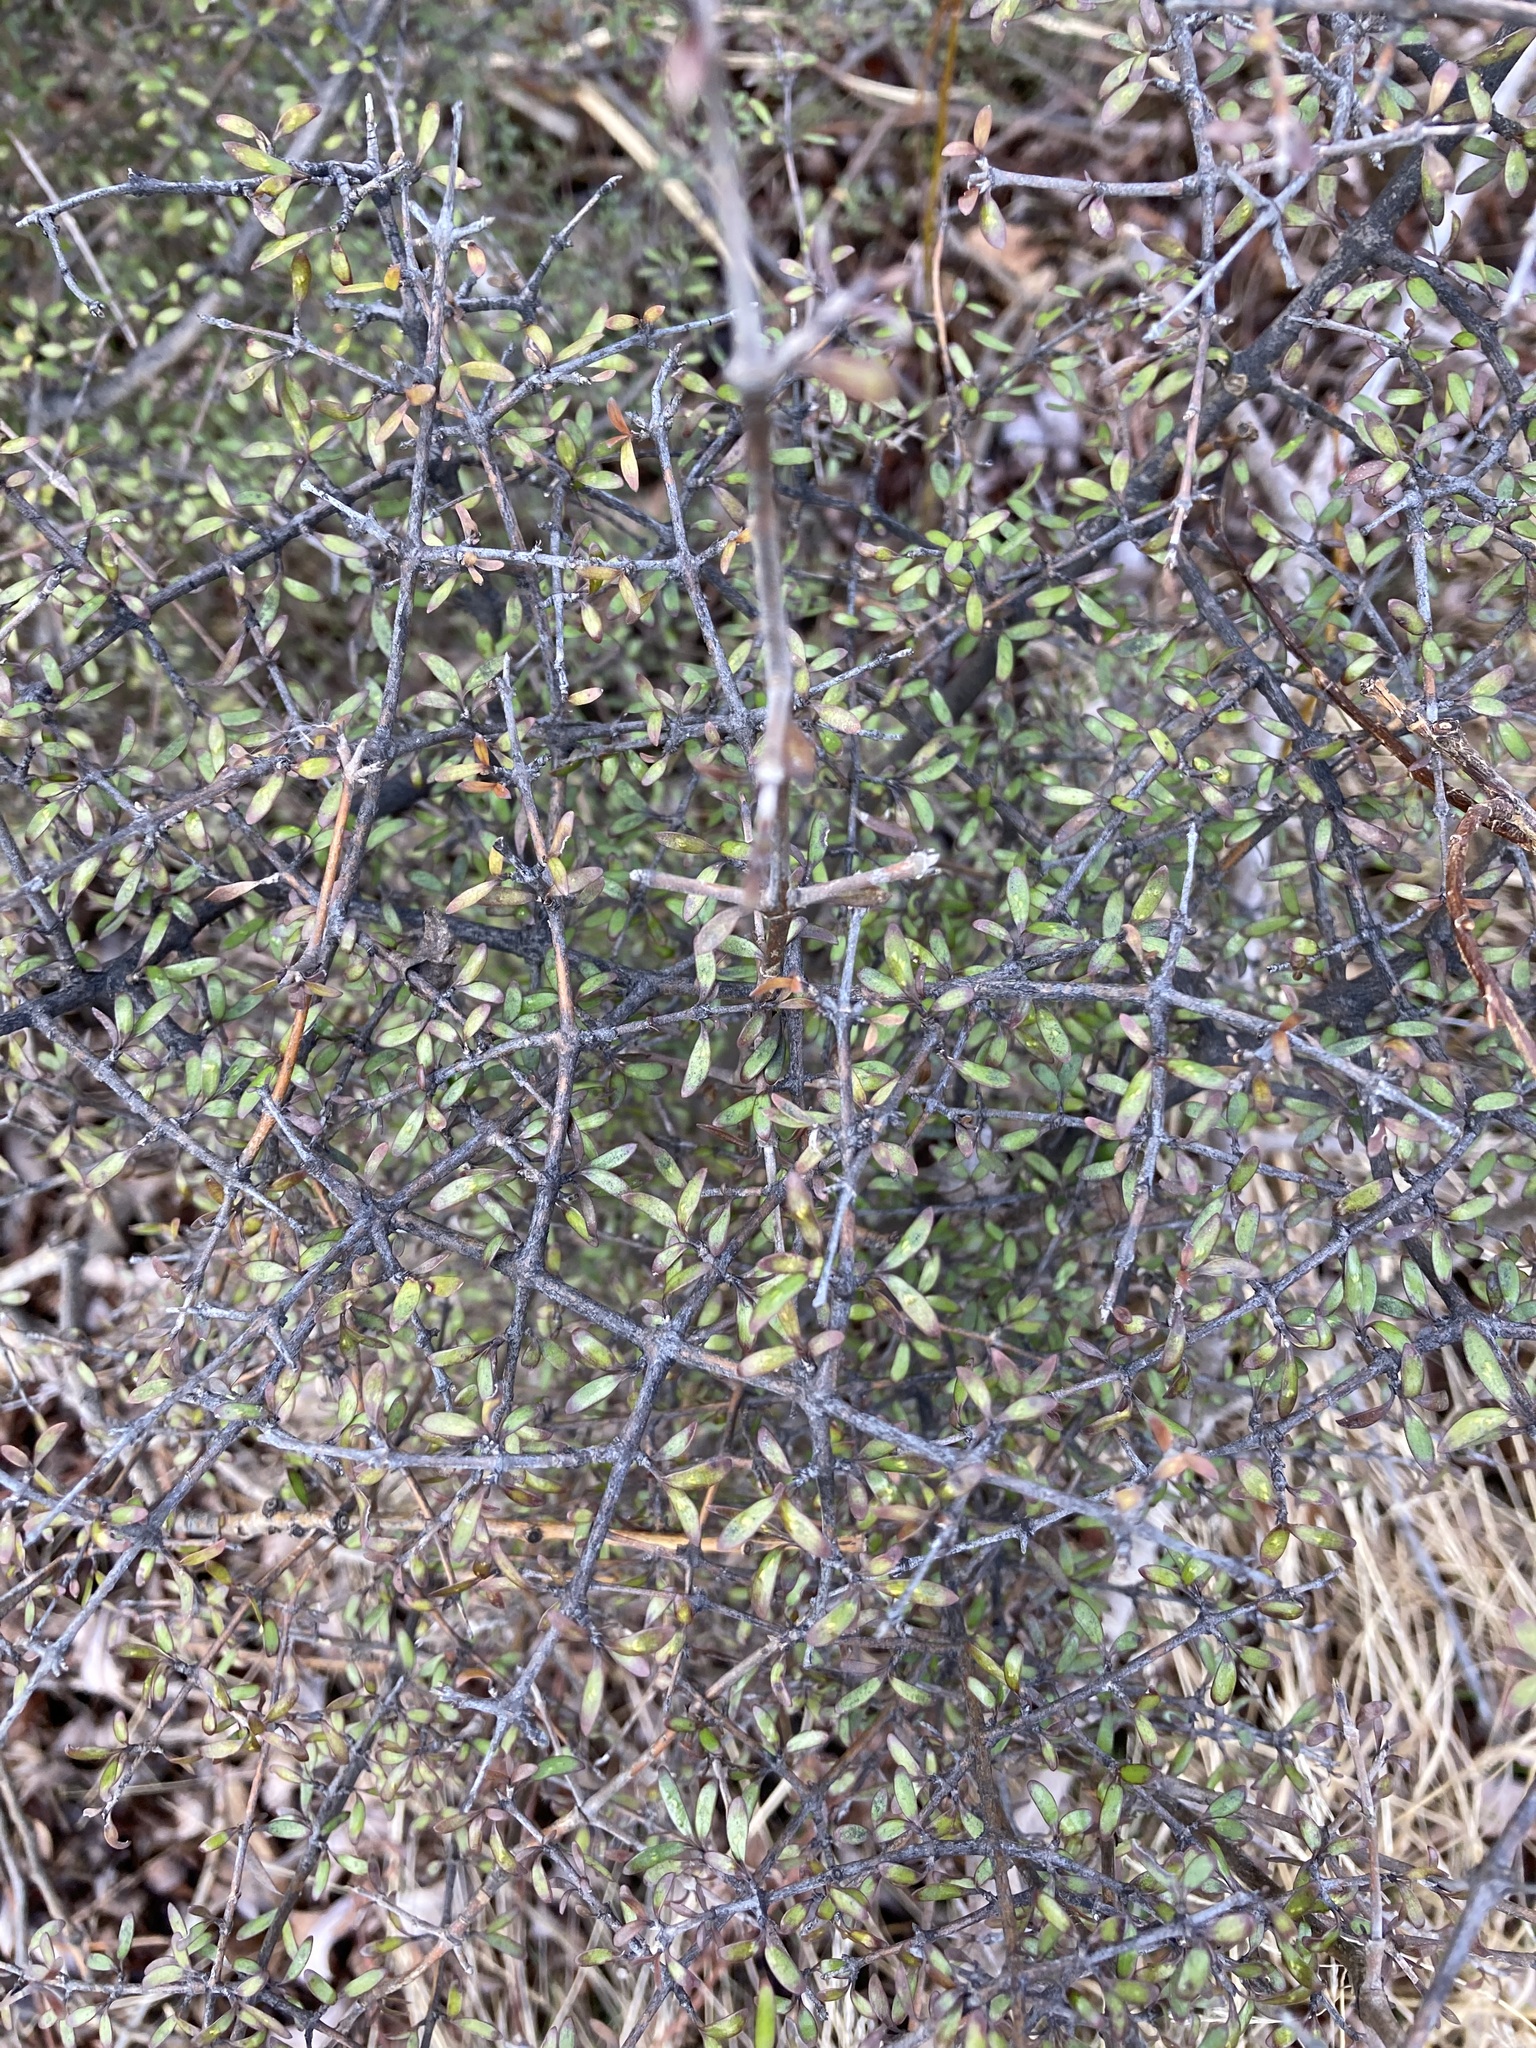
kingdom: Plantae
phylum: Tracheophyta
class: Magnoliopsida
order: Gentianales
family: Rubiaceae
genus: Coprosma
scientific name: Coprosma propinqua
